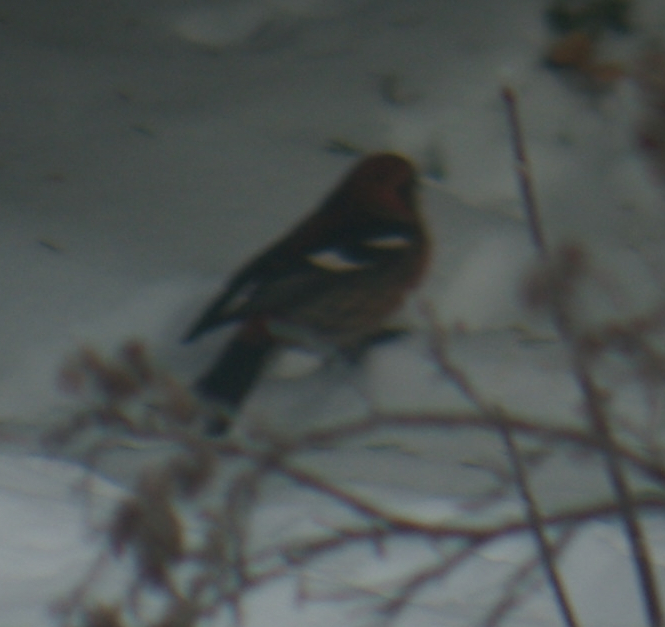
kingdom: Animalia
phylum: Chordata
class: Aves
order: Passeriformes
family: Fringillidae
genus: Loxia
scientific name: Loxia leucoptera
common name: Two-barred crossbill
